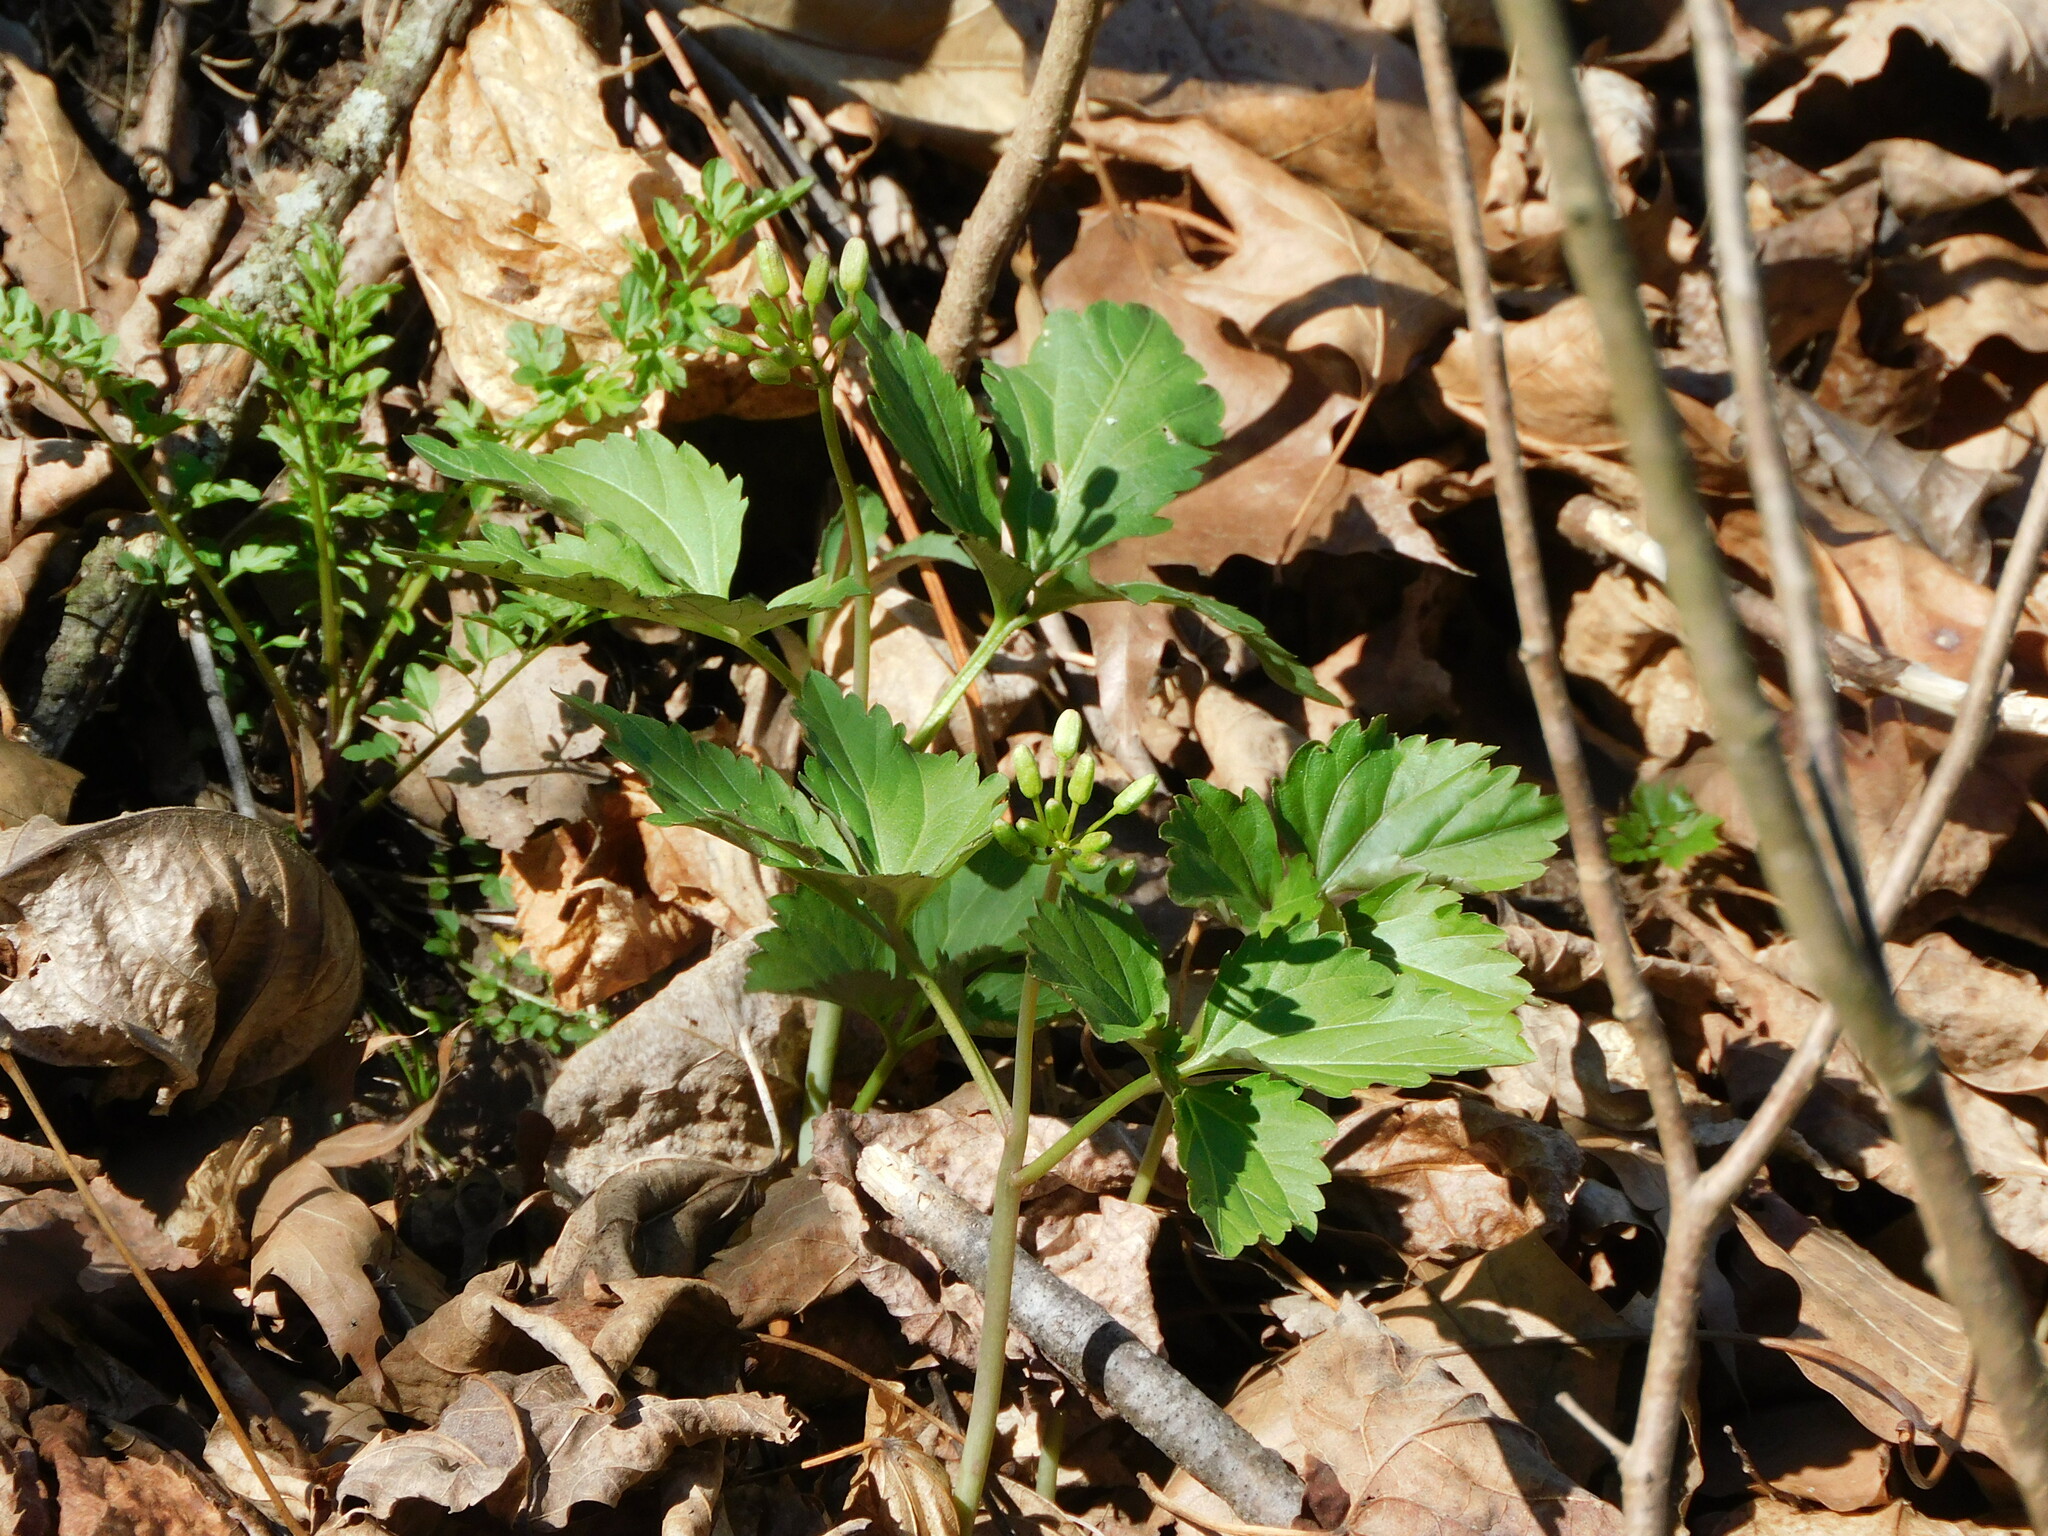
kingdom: Plantae
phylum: Tracheophyta
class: Magnoliopsida
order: Brassicales
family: Brassicaceae
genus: Cardamine
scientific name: Cardamine diphylla
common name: Broad-leaved toothwort
